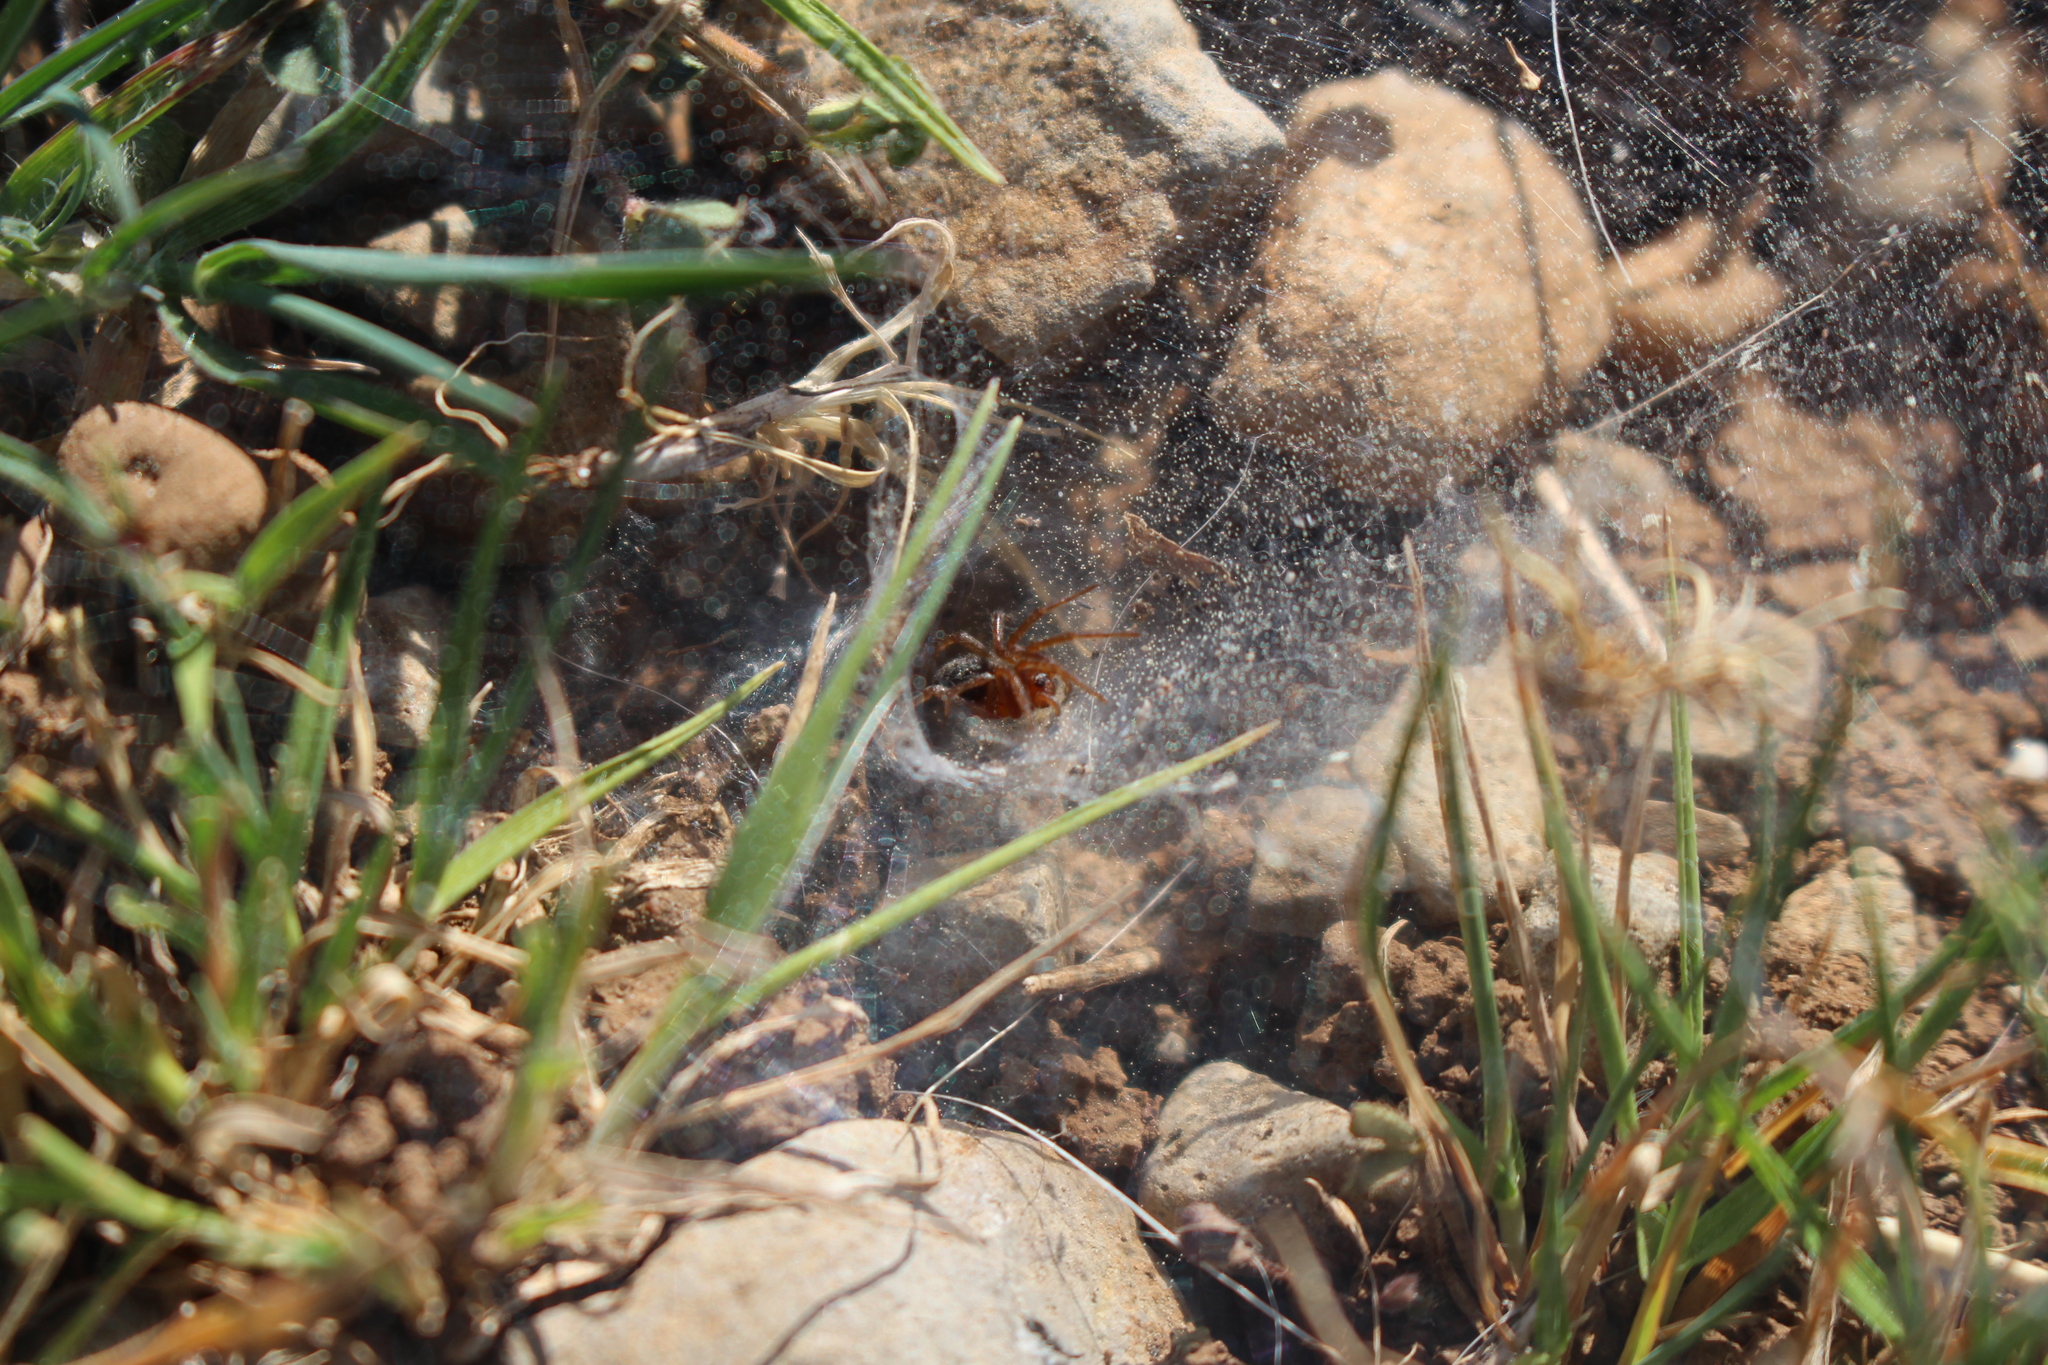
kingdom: Animalia
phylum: Arthropoda
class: Arachnida
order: Araneae
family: Agelenidae
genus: Agelena
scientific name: Agelena labyrinthica
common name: Labyrinth spider
